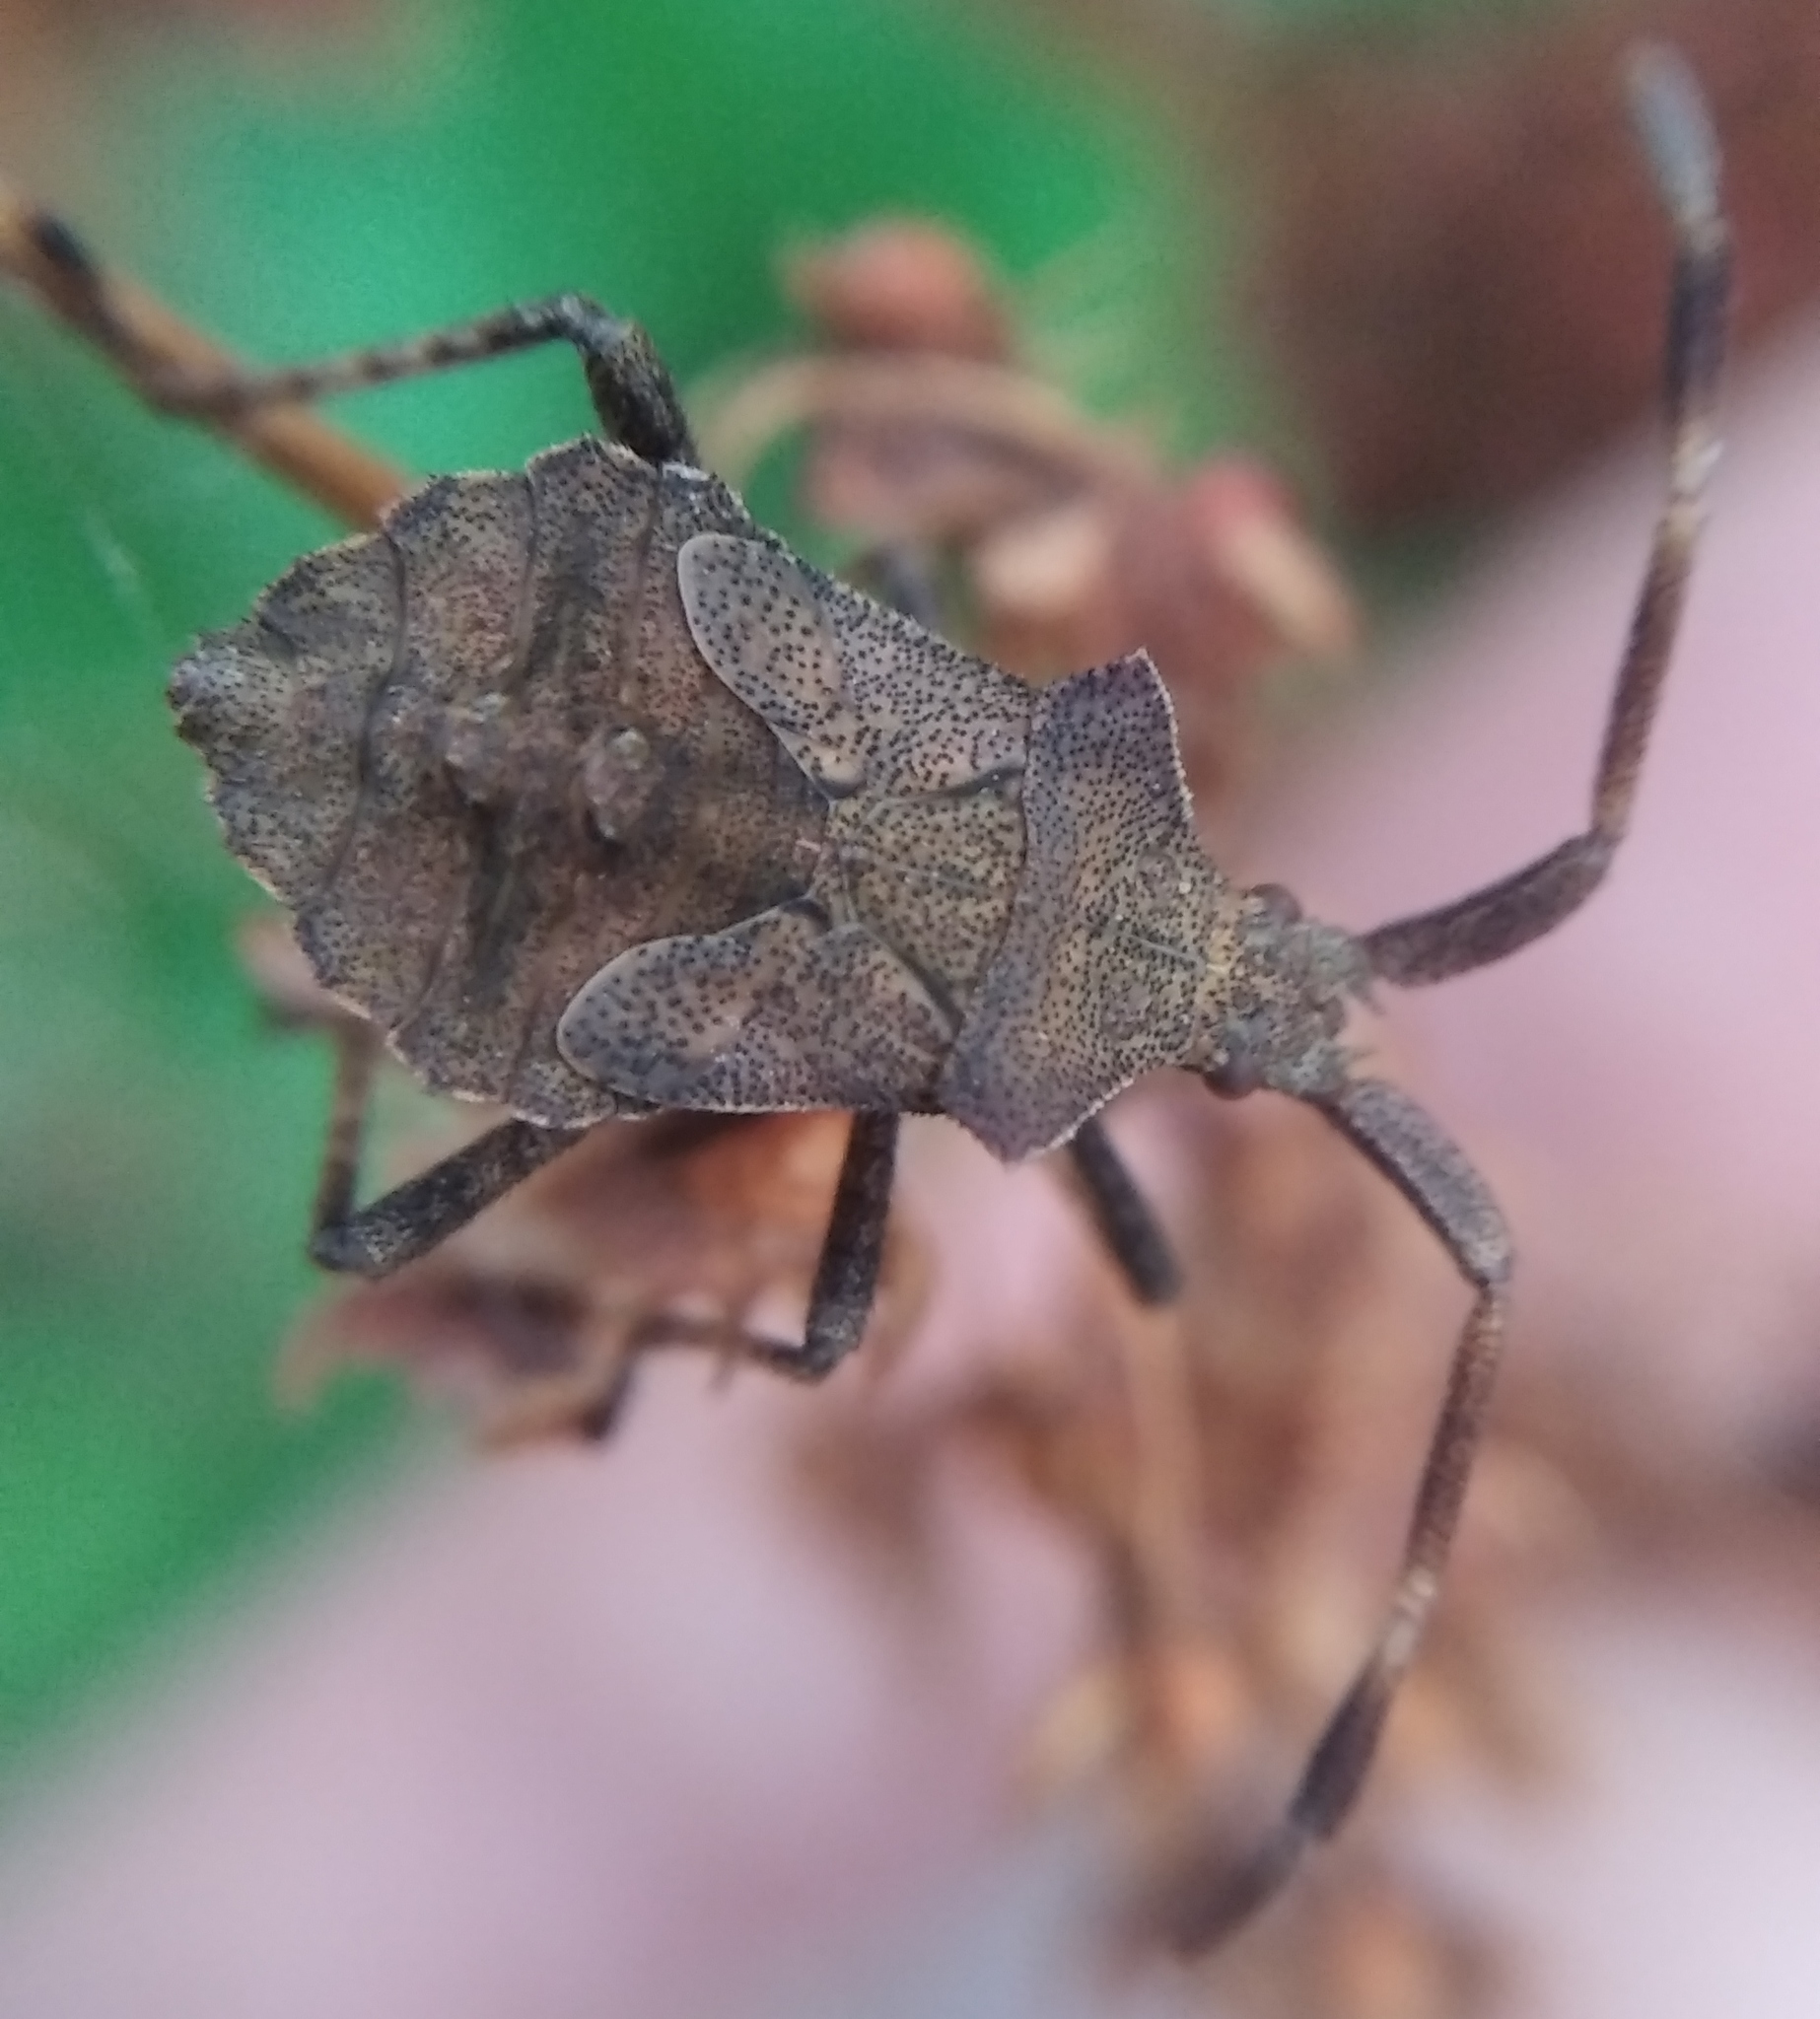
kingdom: Animalia
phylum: Arthropoda
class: Insecta
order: Hemiptera
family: Coreidae
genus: Coreus
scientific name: Coreus marginatus
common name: Dock bug
